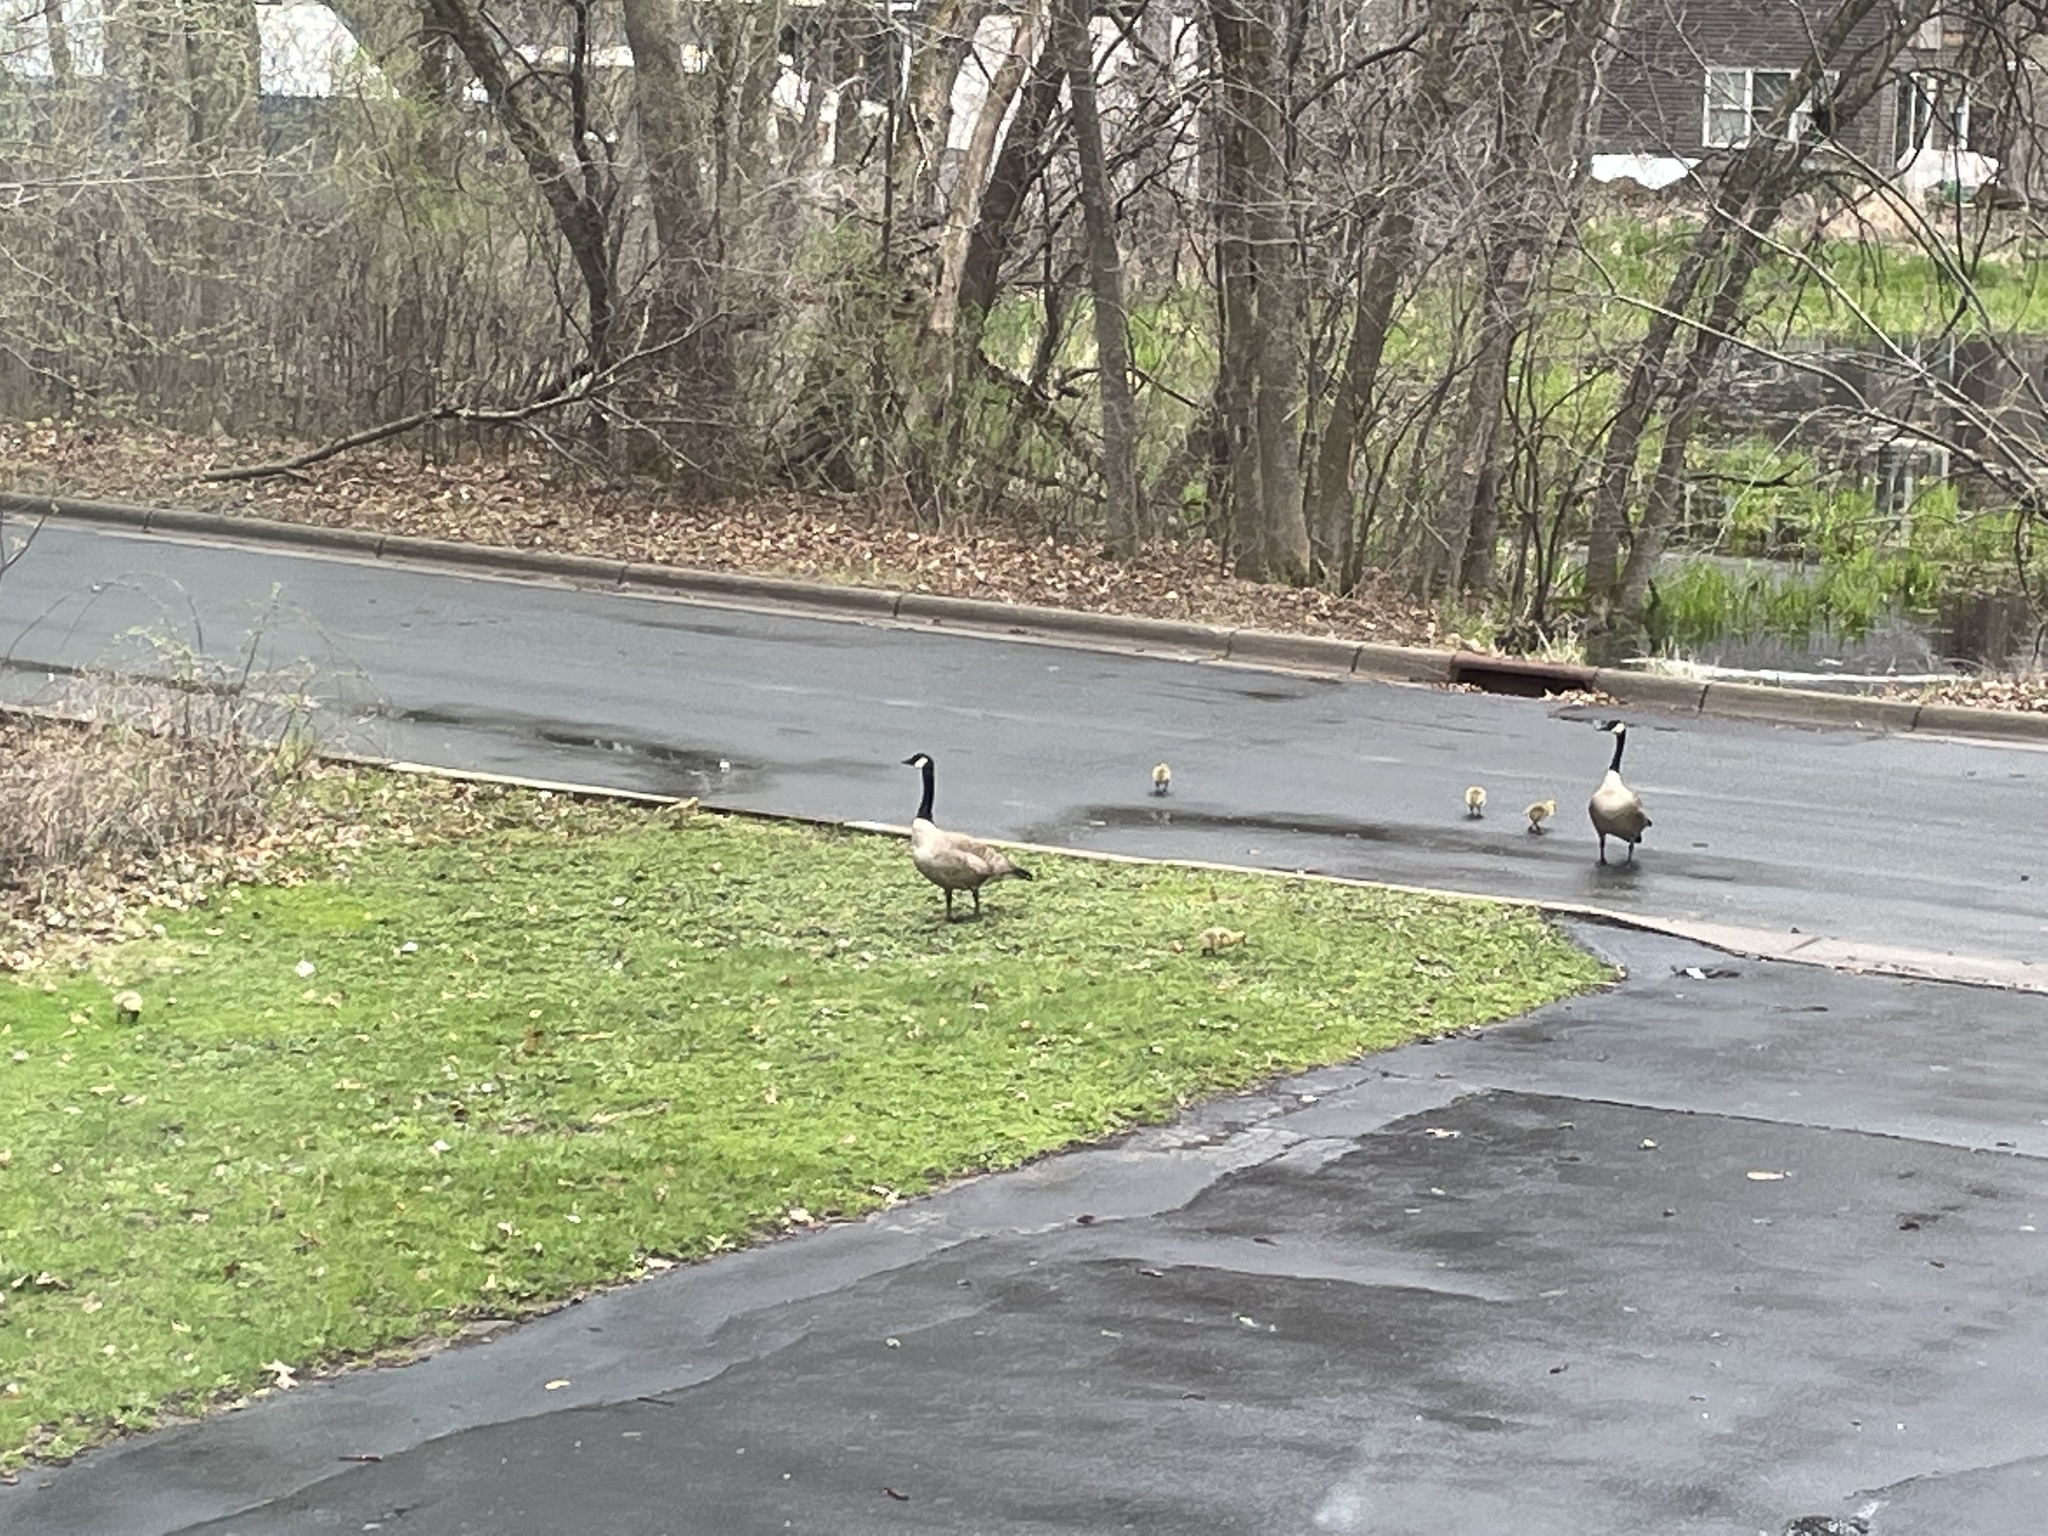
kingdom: Animalia
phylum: Chordata
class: Aves
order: Anseriformes
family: Anatidae
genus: Branta
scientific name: Branta canadensis
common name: Canada goose
